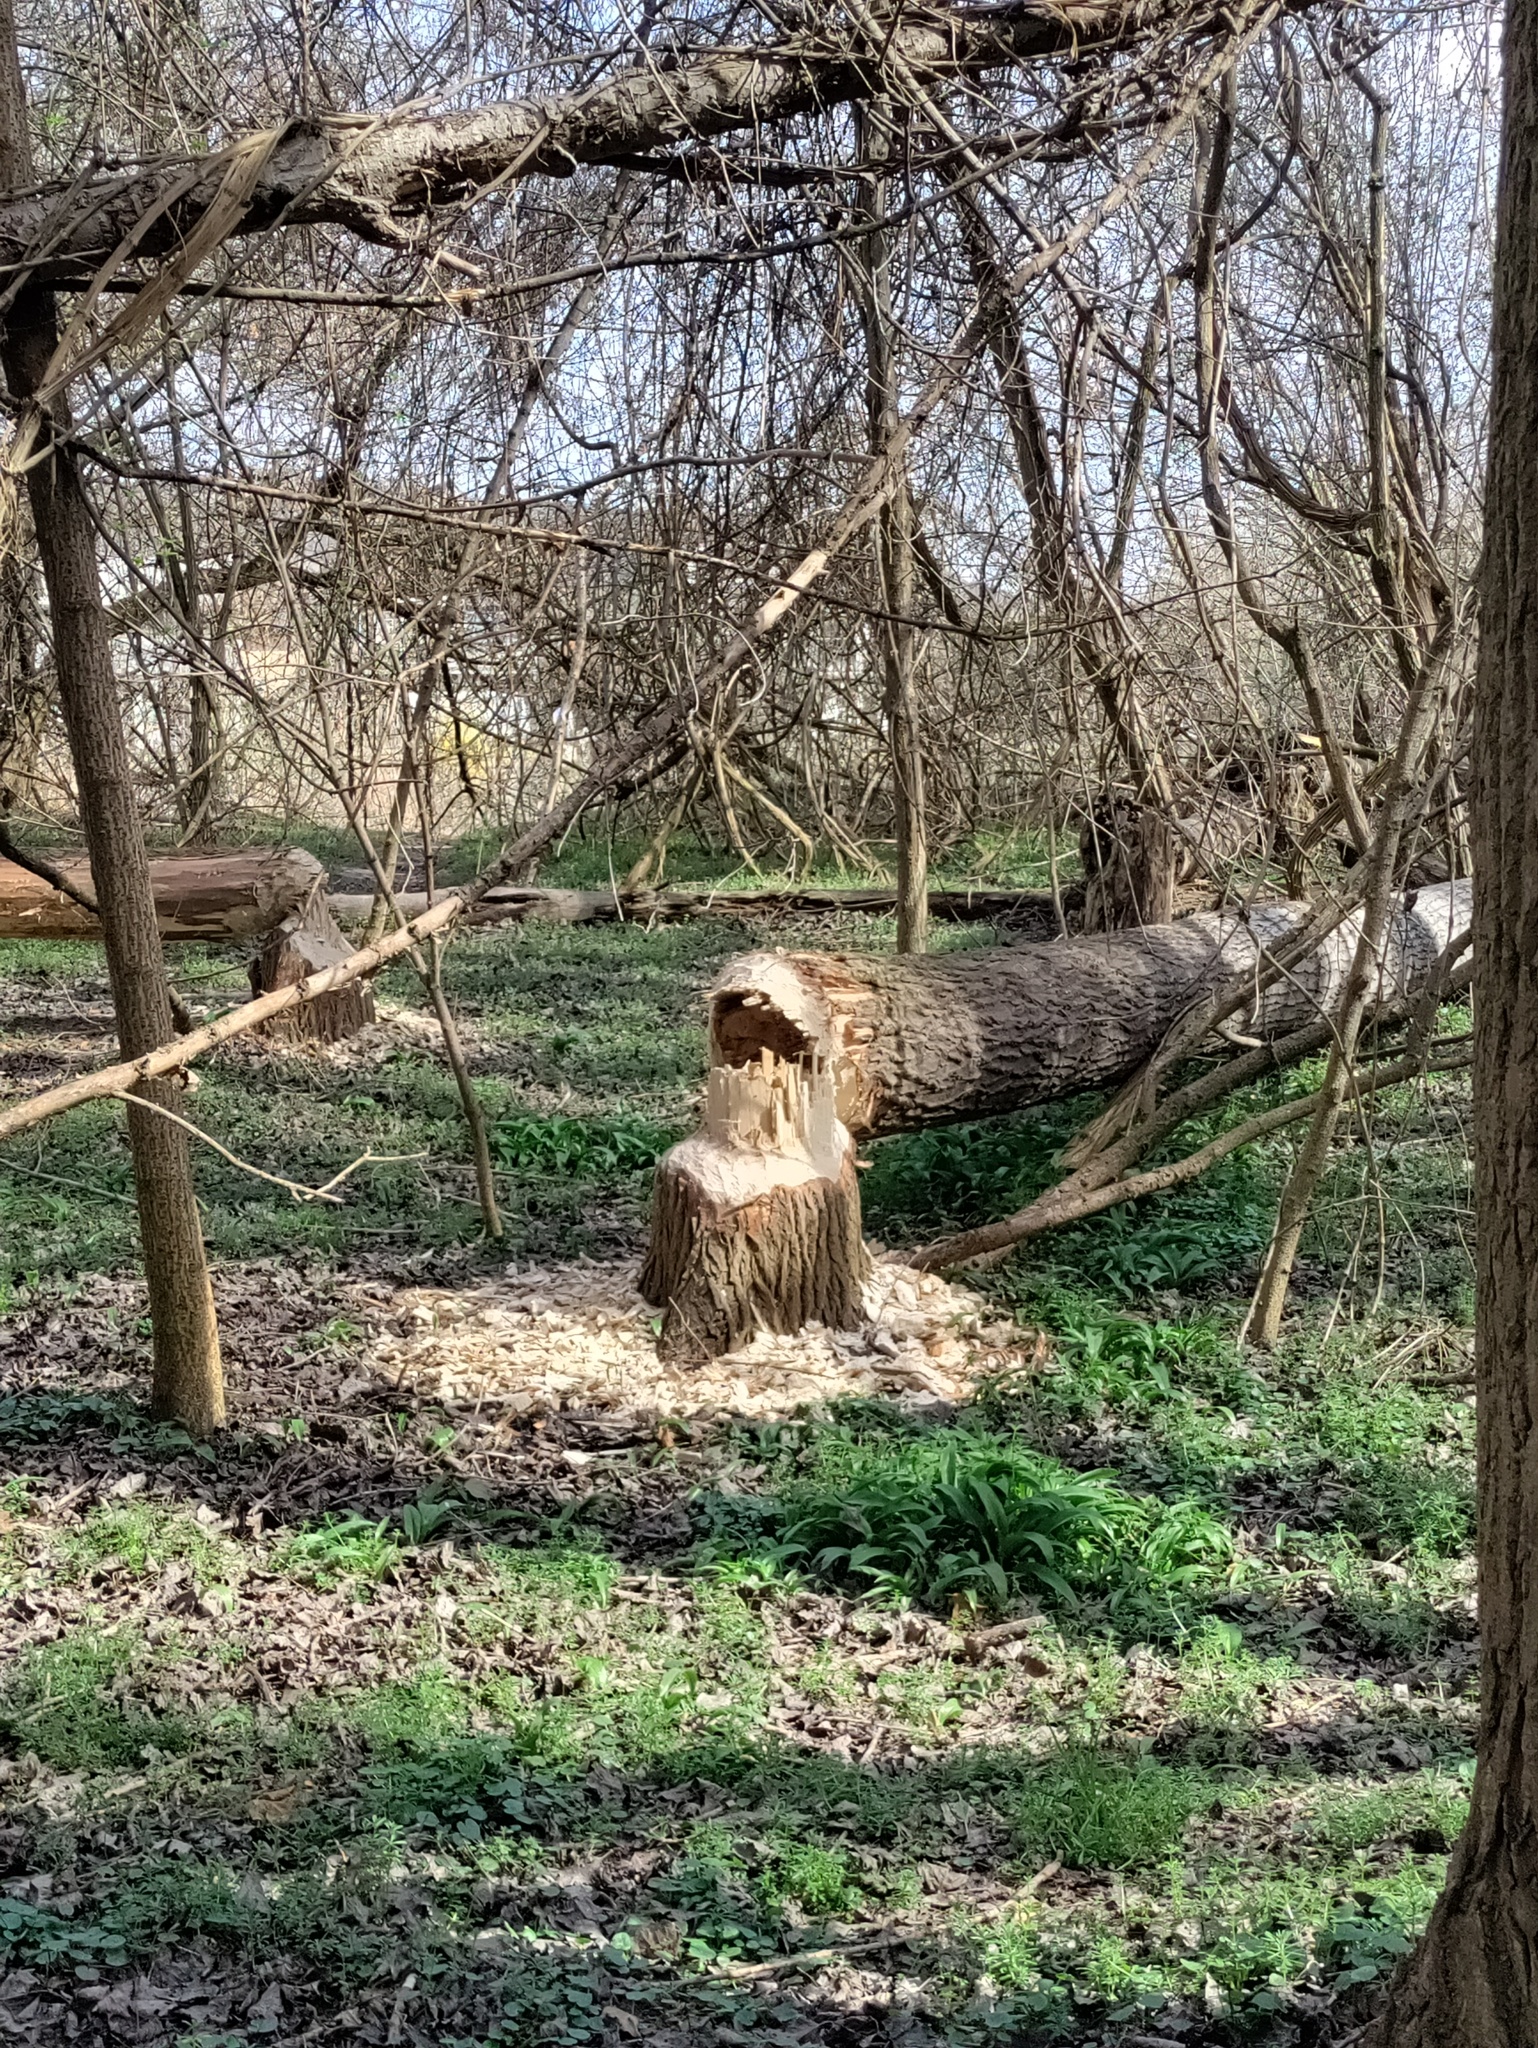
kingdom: Animalia
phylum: Chordata
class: Mammalia
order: Rodentia
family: Castoridae
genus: Castor
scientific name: Castor fiber
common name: Eurasian beaver
